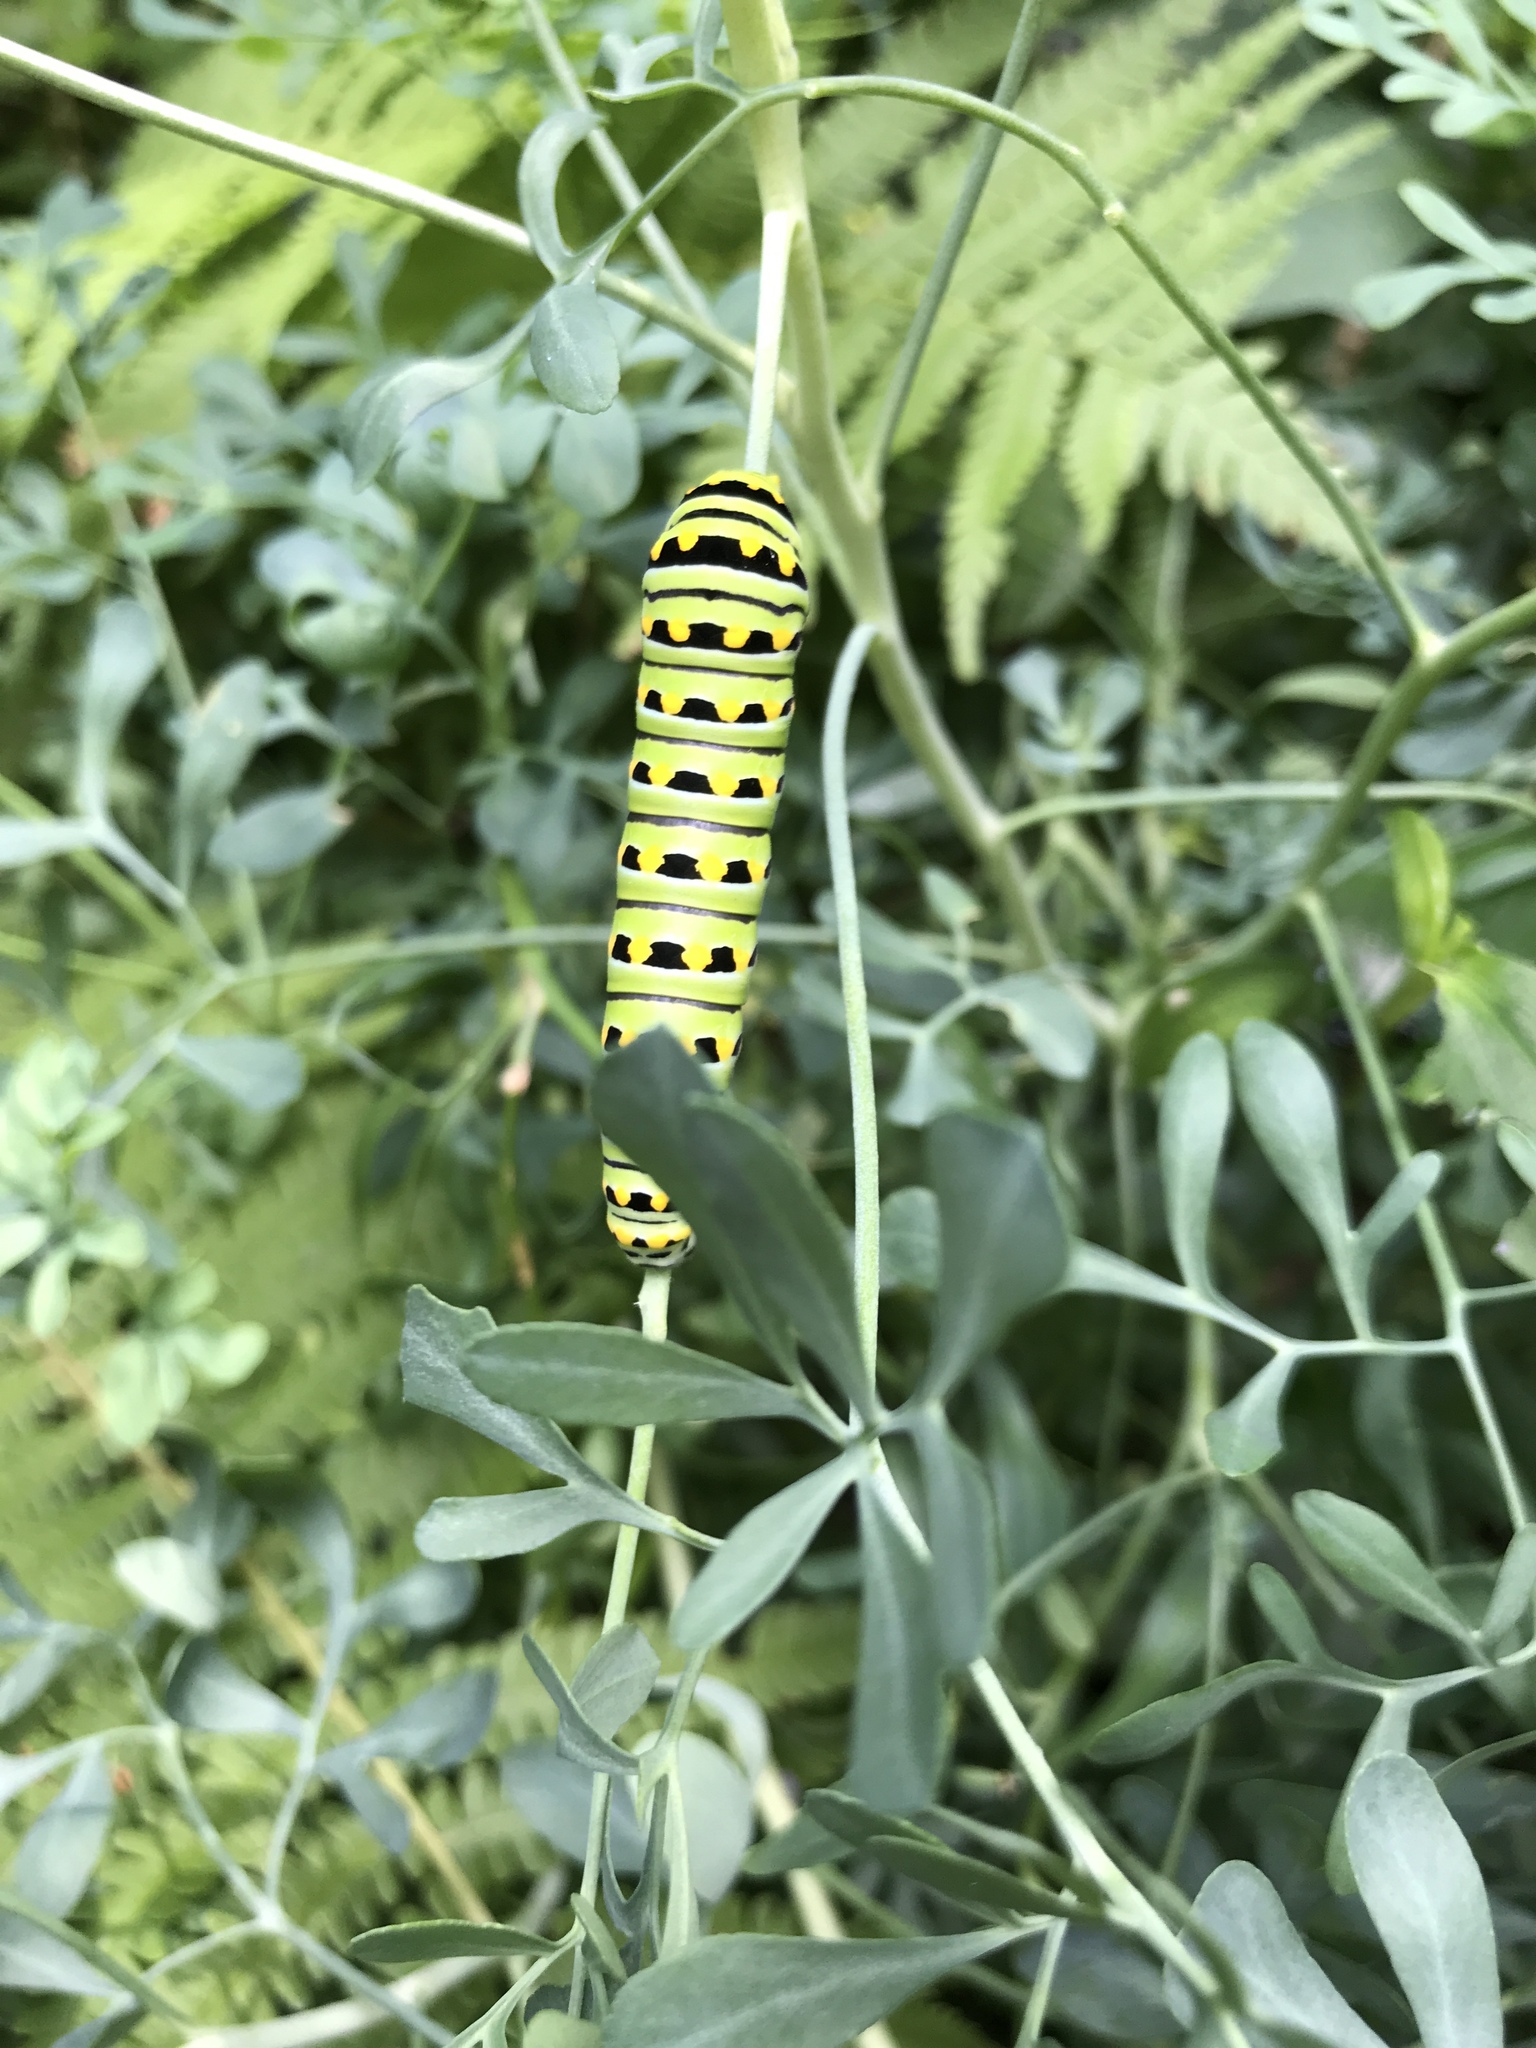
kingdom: Animalia
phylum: Arthropoda
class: Insecta
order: Lepidoptera
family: Papilionidae
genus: Papilio
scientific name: Papilio polyxenes
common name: Black swallowtail
